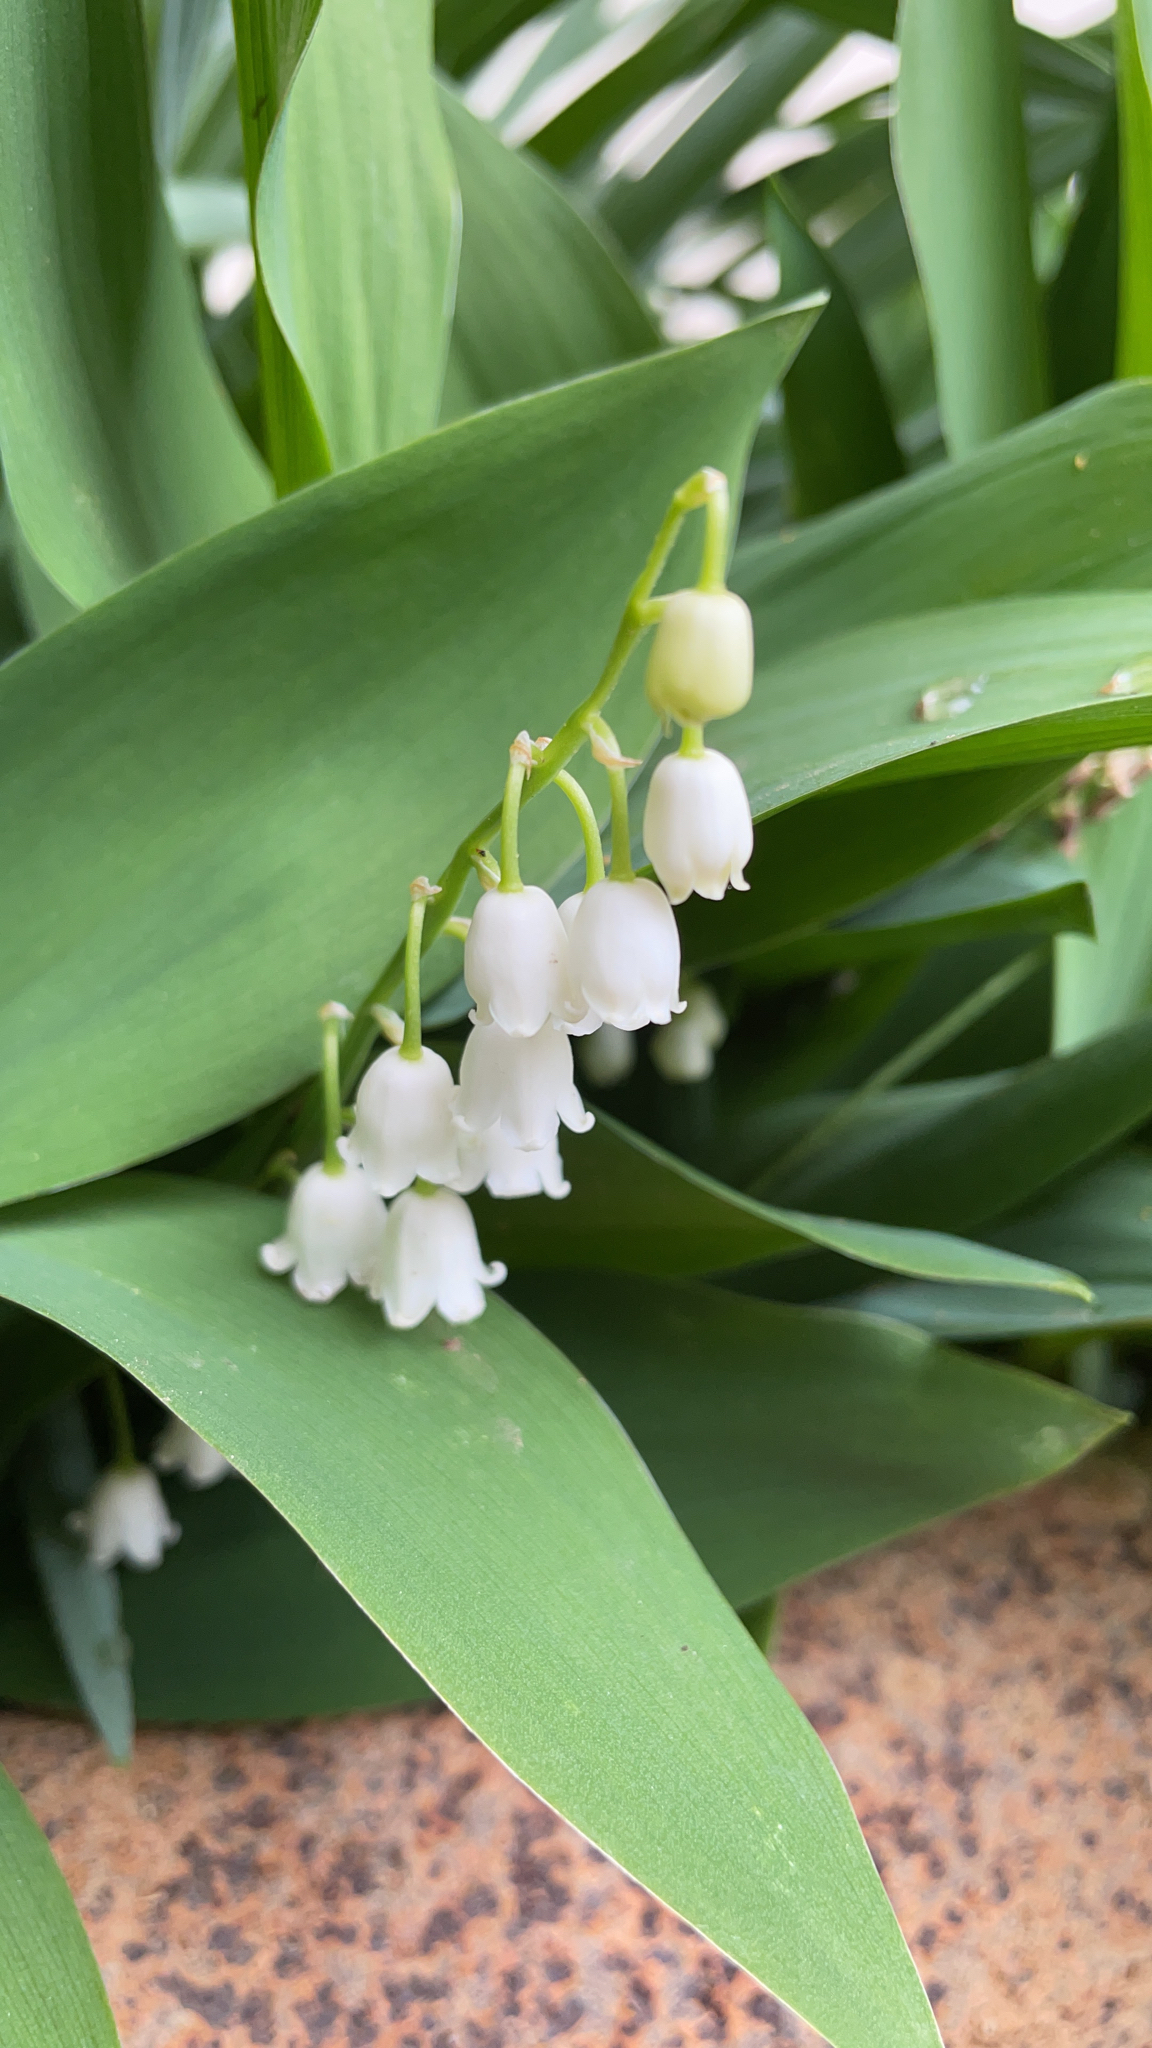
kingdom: Plantae
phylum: Tracheophyta
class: Liliopsida
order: Asparagales
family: Asparagaceae
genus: Convallaria
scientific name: Convallaria majalis
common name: Lily-of-the-valley
